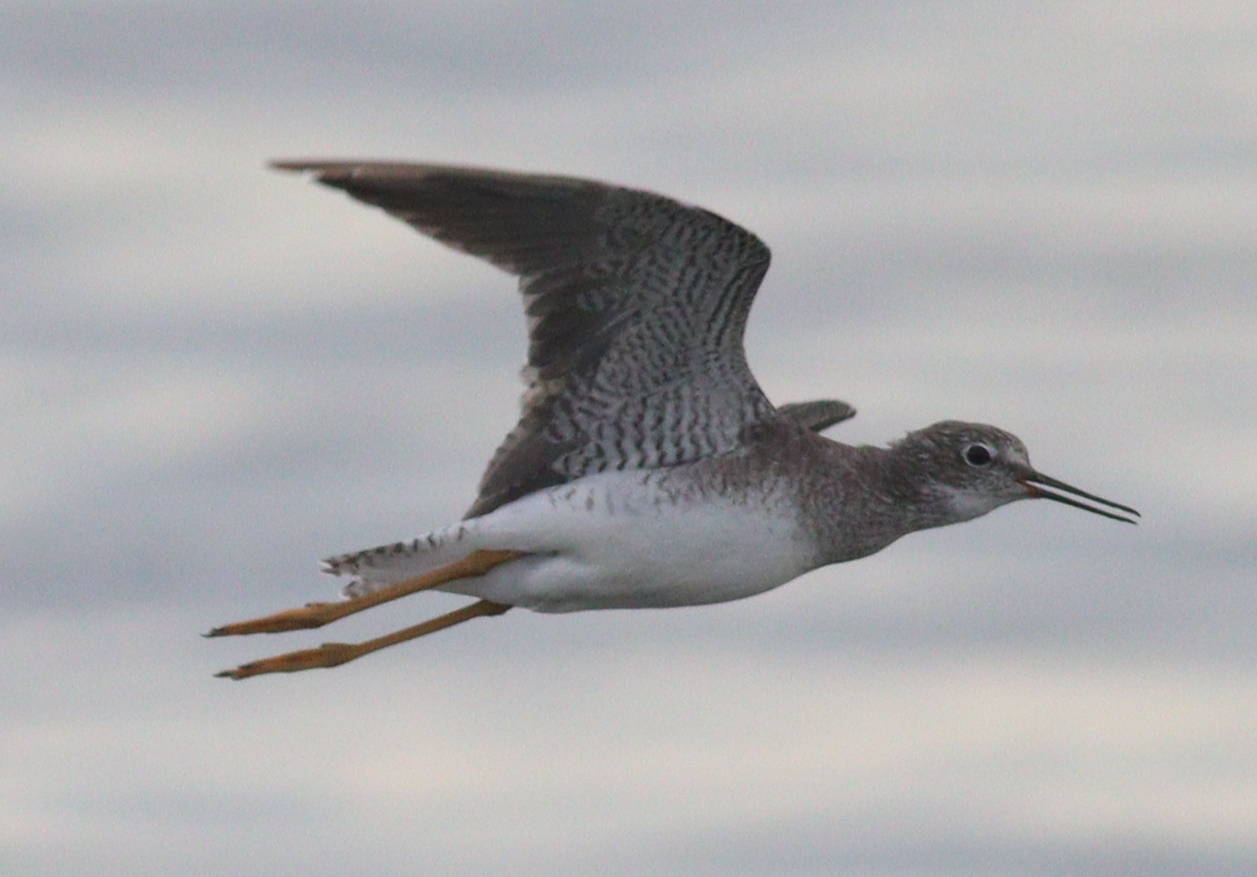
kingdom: Animalia
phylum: Chordata
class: Aves
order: Charadriiformes
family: Scolopacidae
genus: Tringa
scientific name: Tringa flavipes
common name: Lesser yellowlegs
